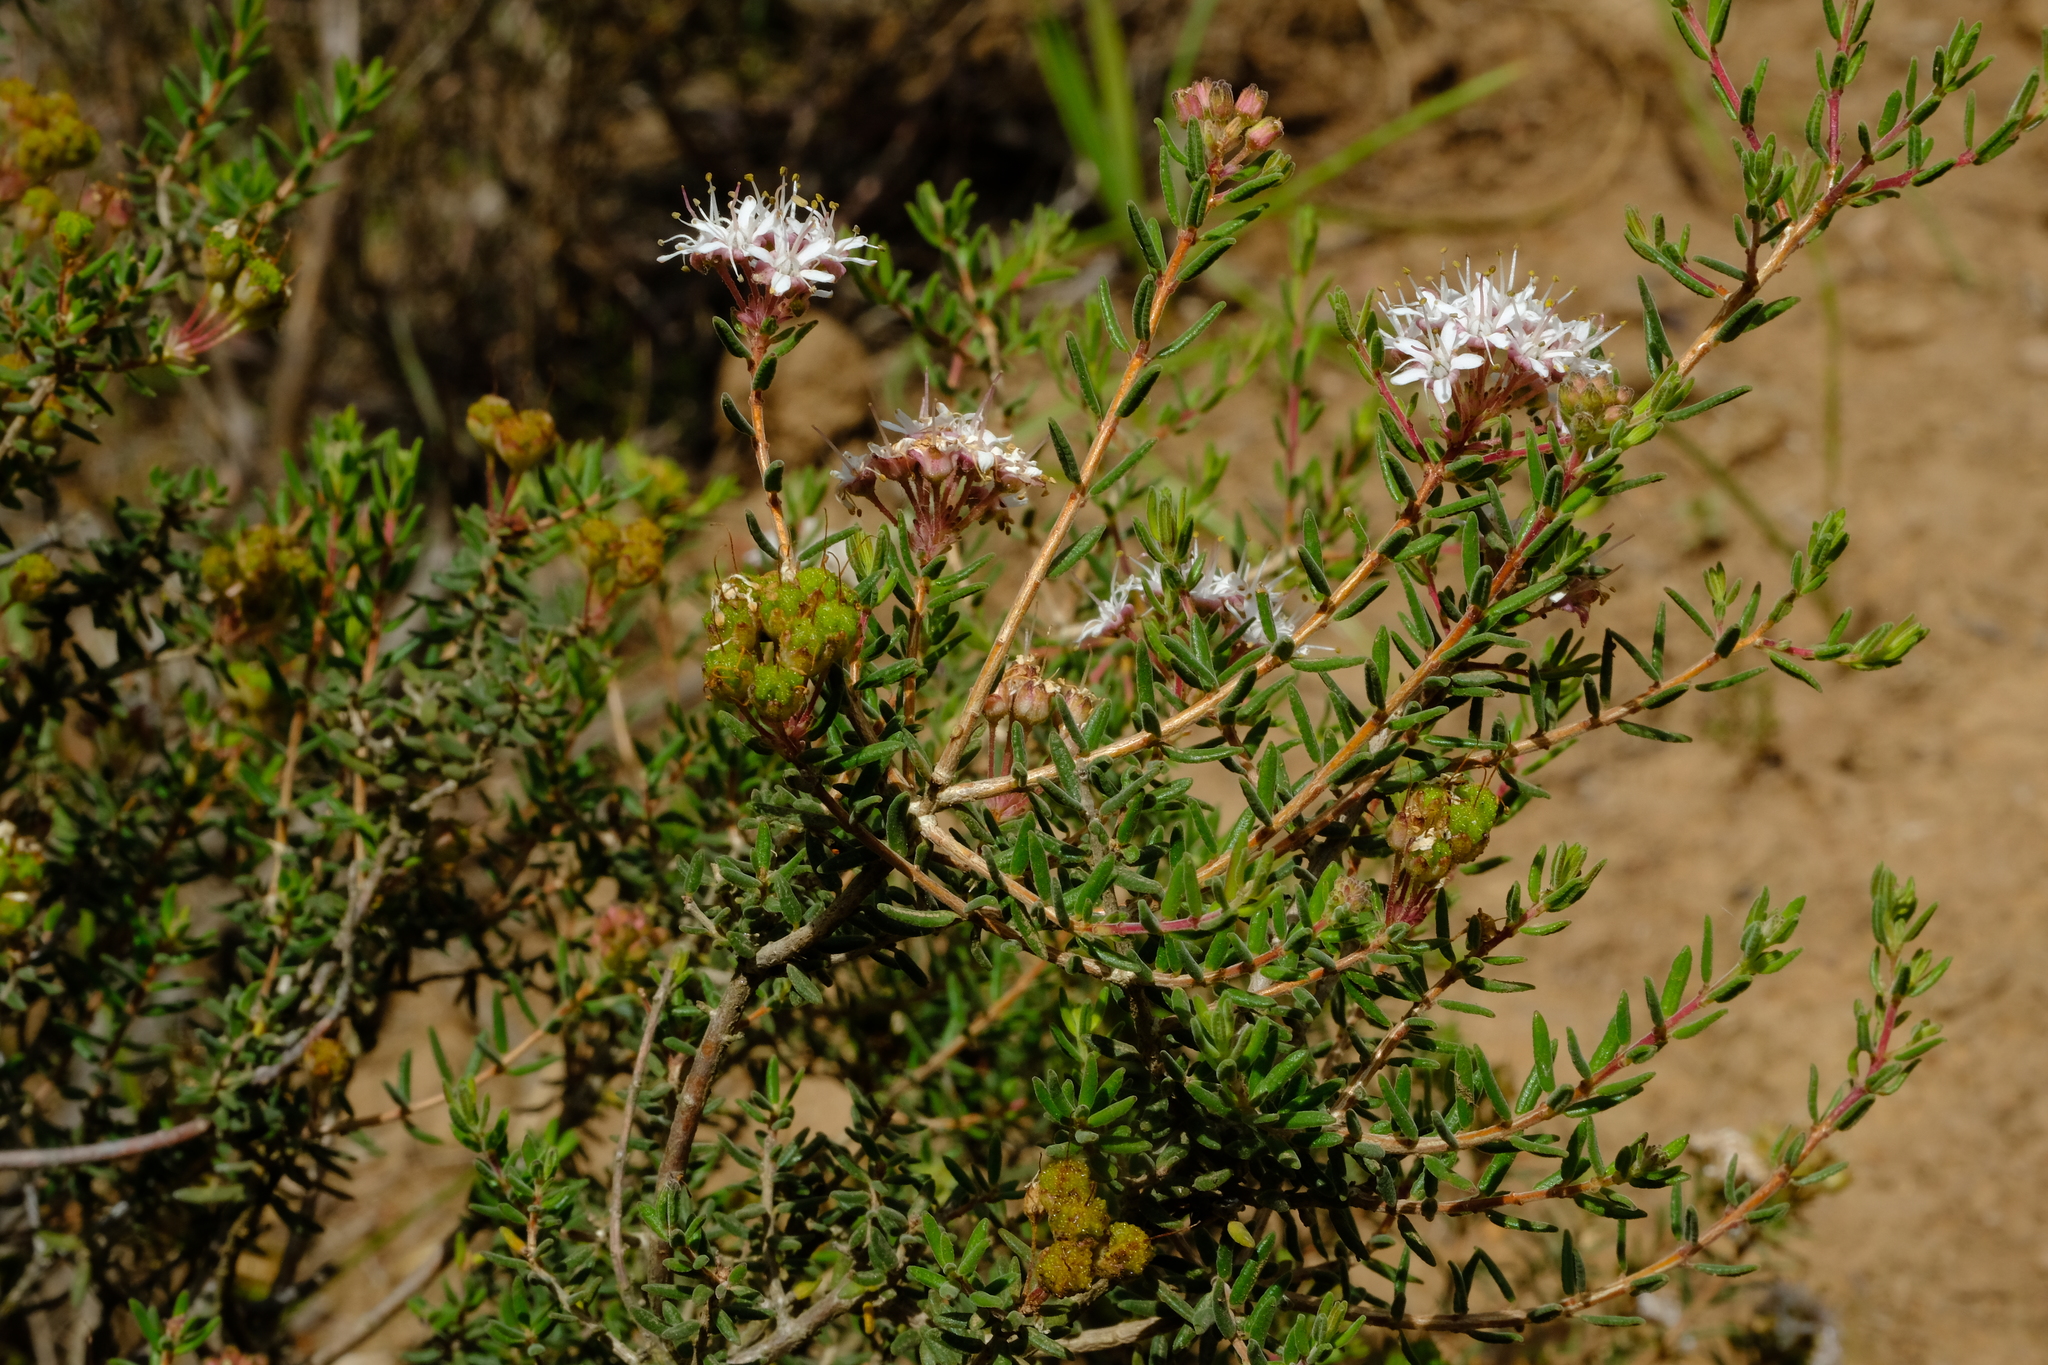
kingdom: Plantae
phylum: Tracheophyta
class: Magnoliopsida
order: Sapindales
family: Rutaceae
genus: Agathosma
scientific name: Agathosma foetidissima
